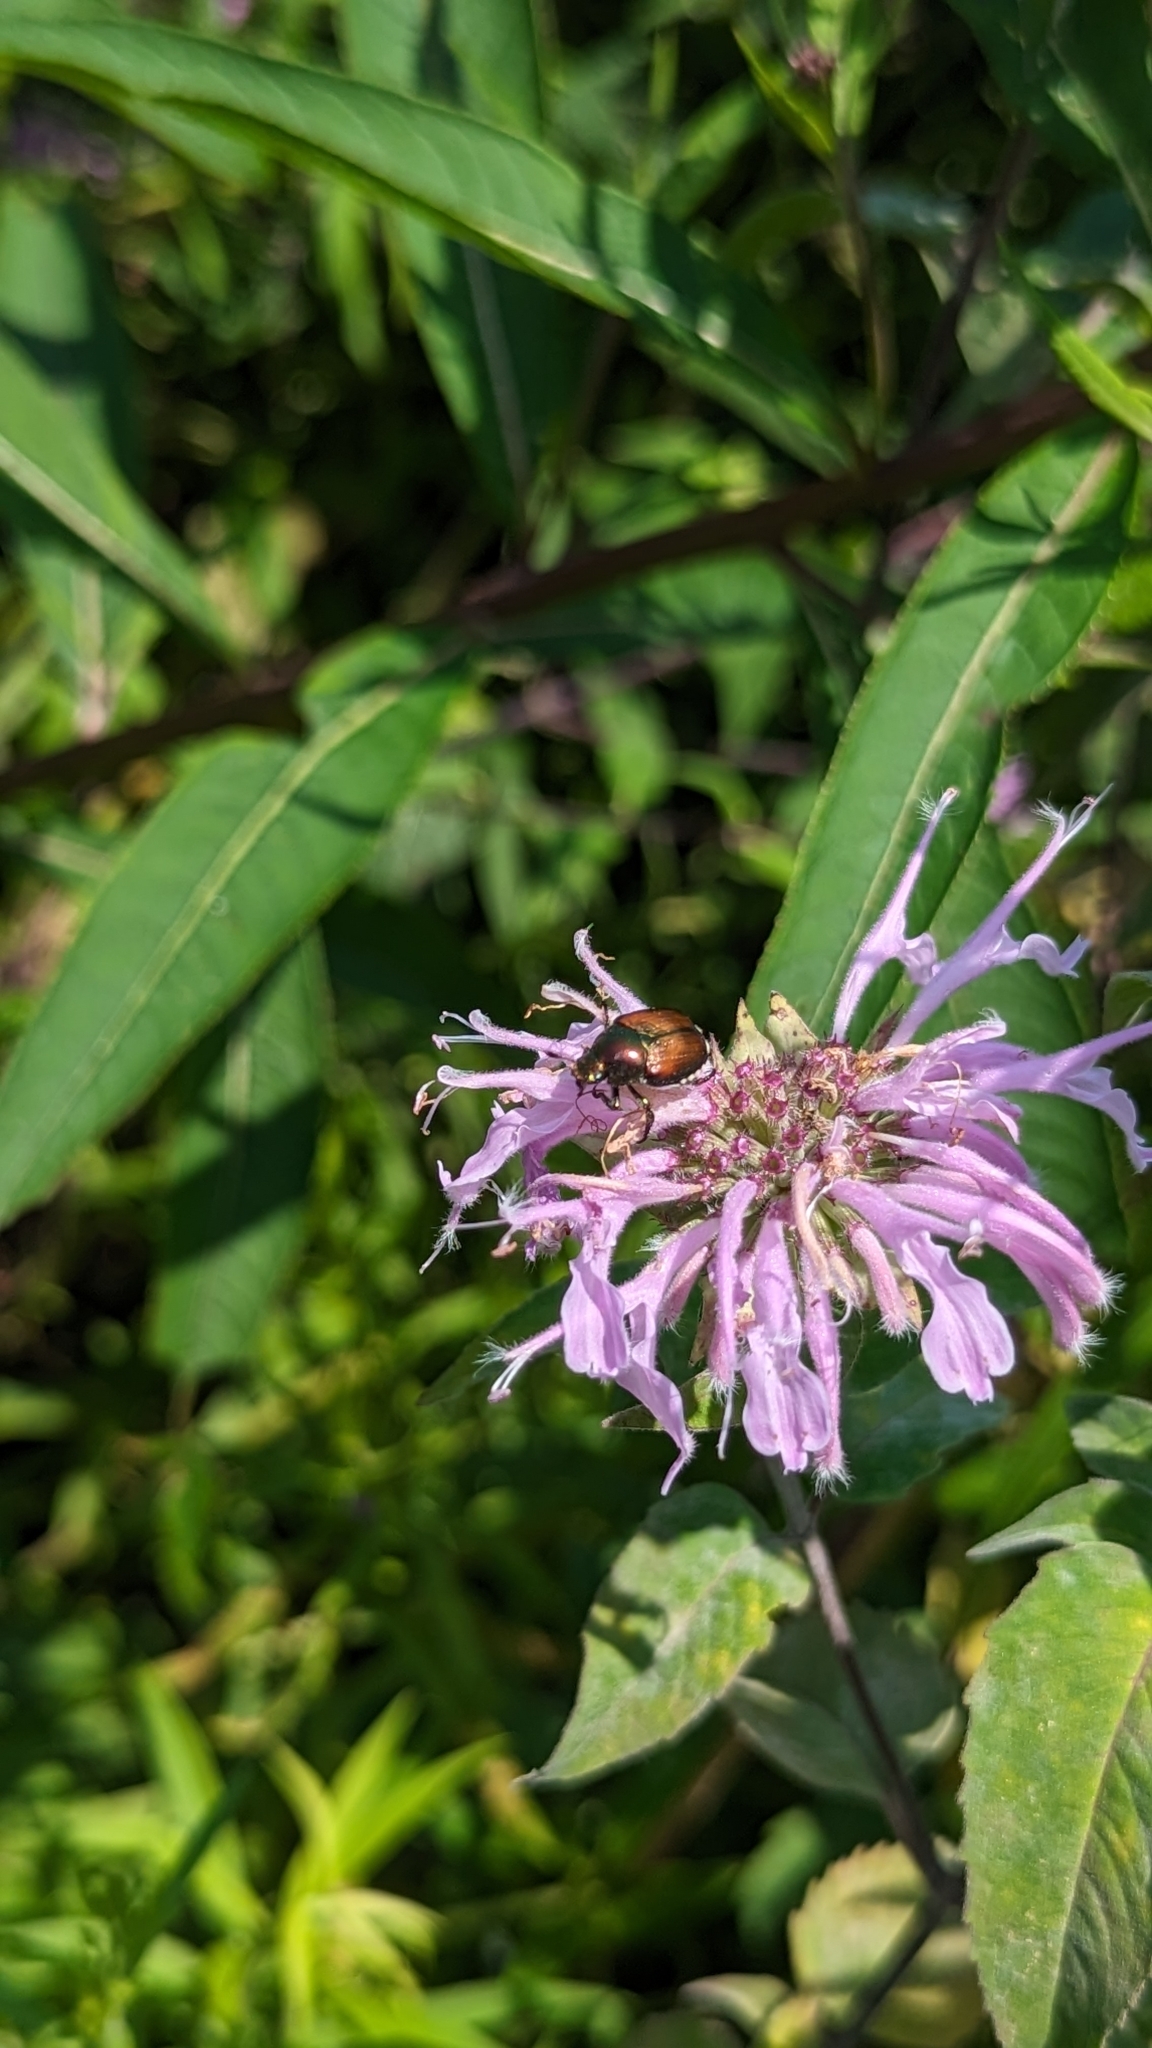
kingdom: Animalia
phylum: Arthropoda
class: Insecta
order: Coleoptera
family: Scarabaeidae
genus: Popillia
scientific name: Popillia japonica
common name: Japanese beetle
